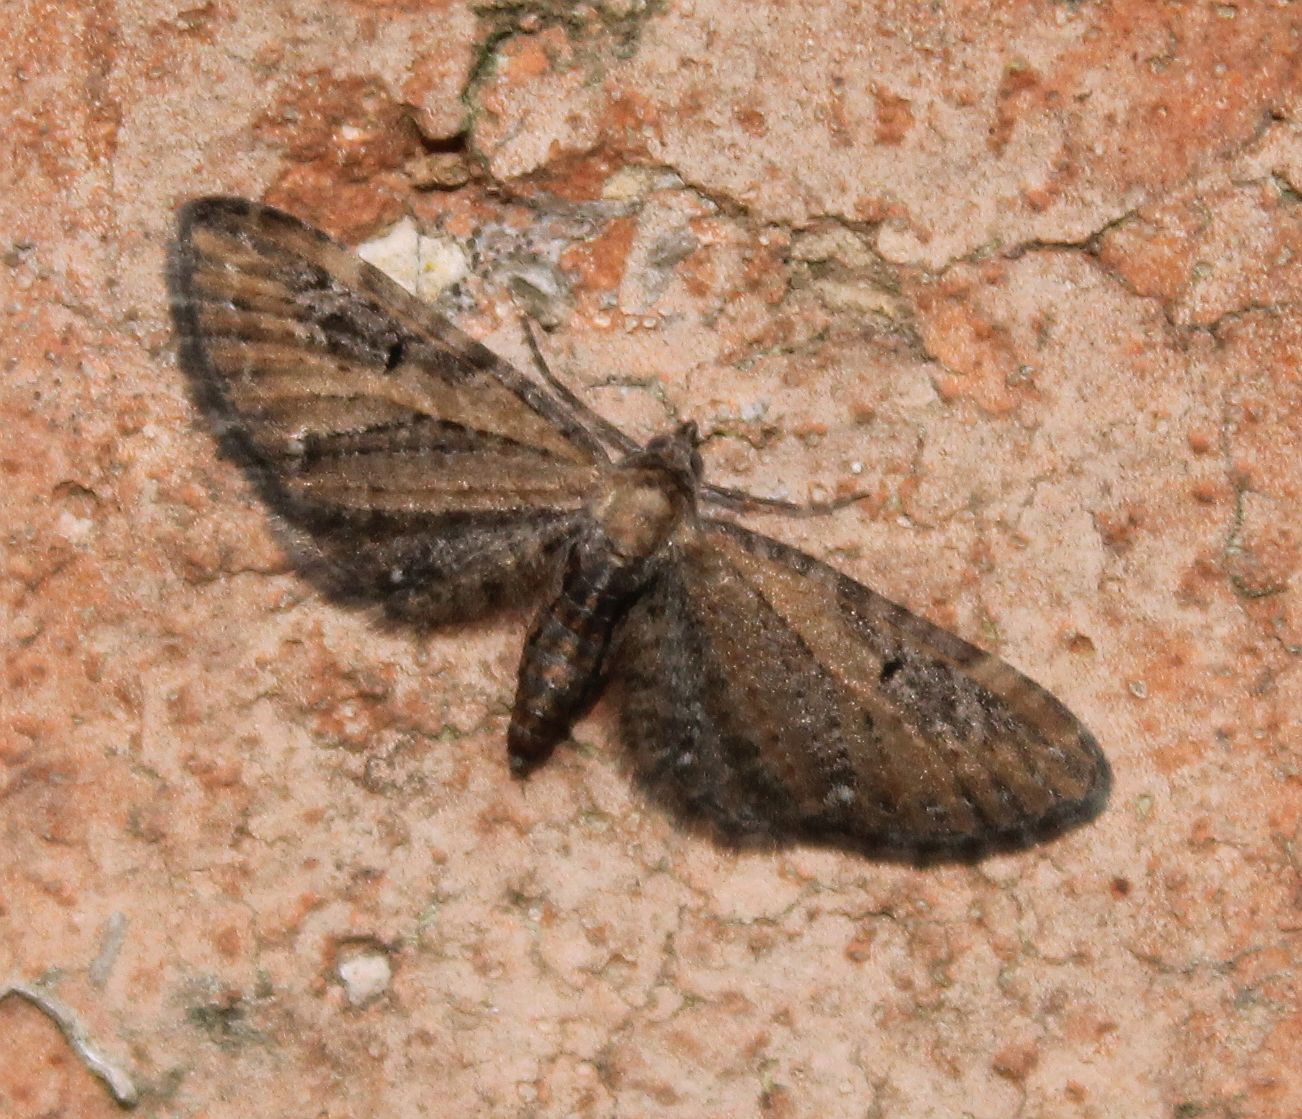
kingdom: Animalia
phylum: Arthropoda
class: Insecta
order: Lepidoptera
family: Geometridae
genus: Eupithecia
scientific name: Eupithecia vulgata
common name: Common pug
